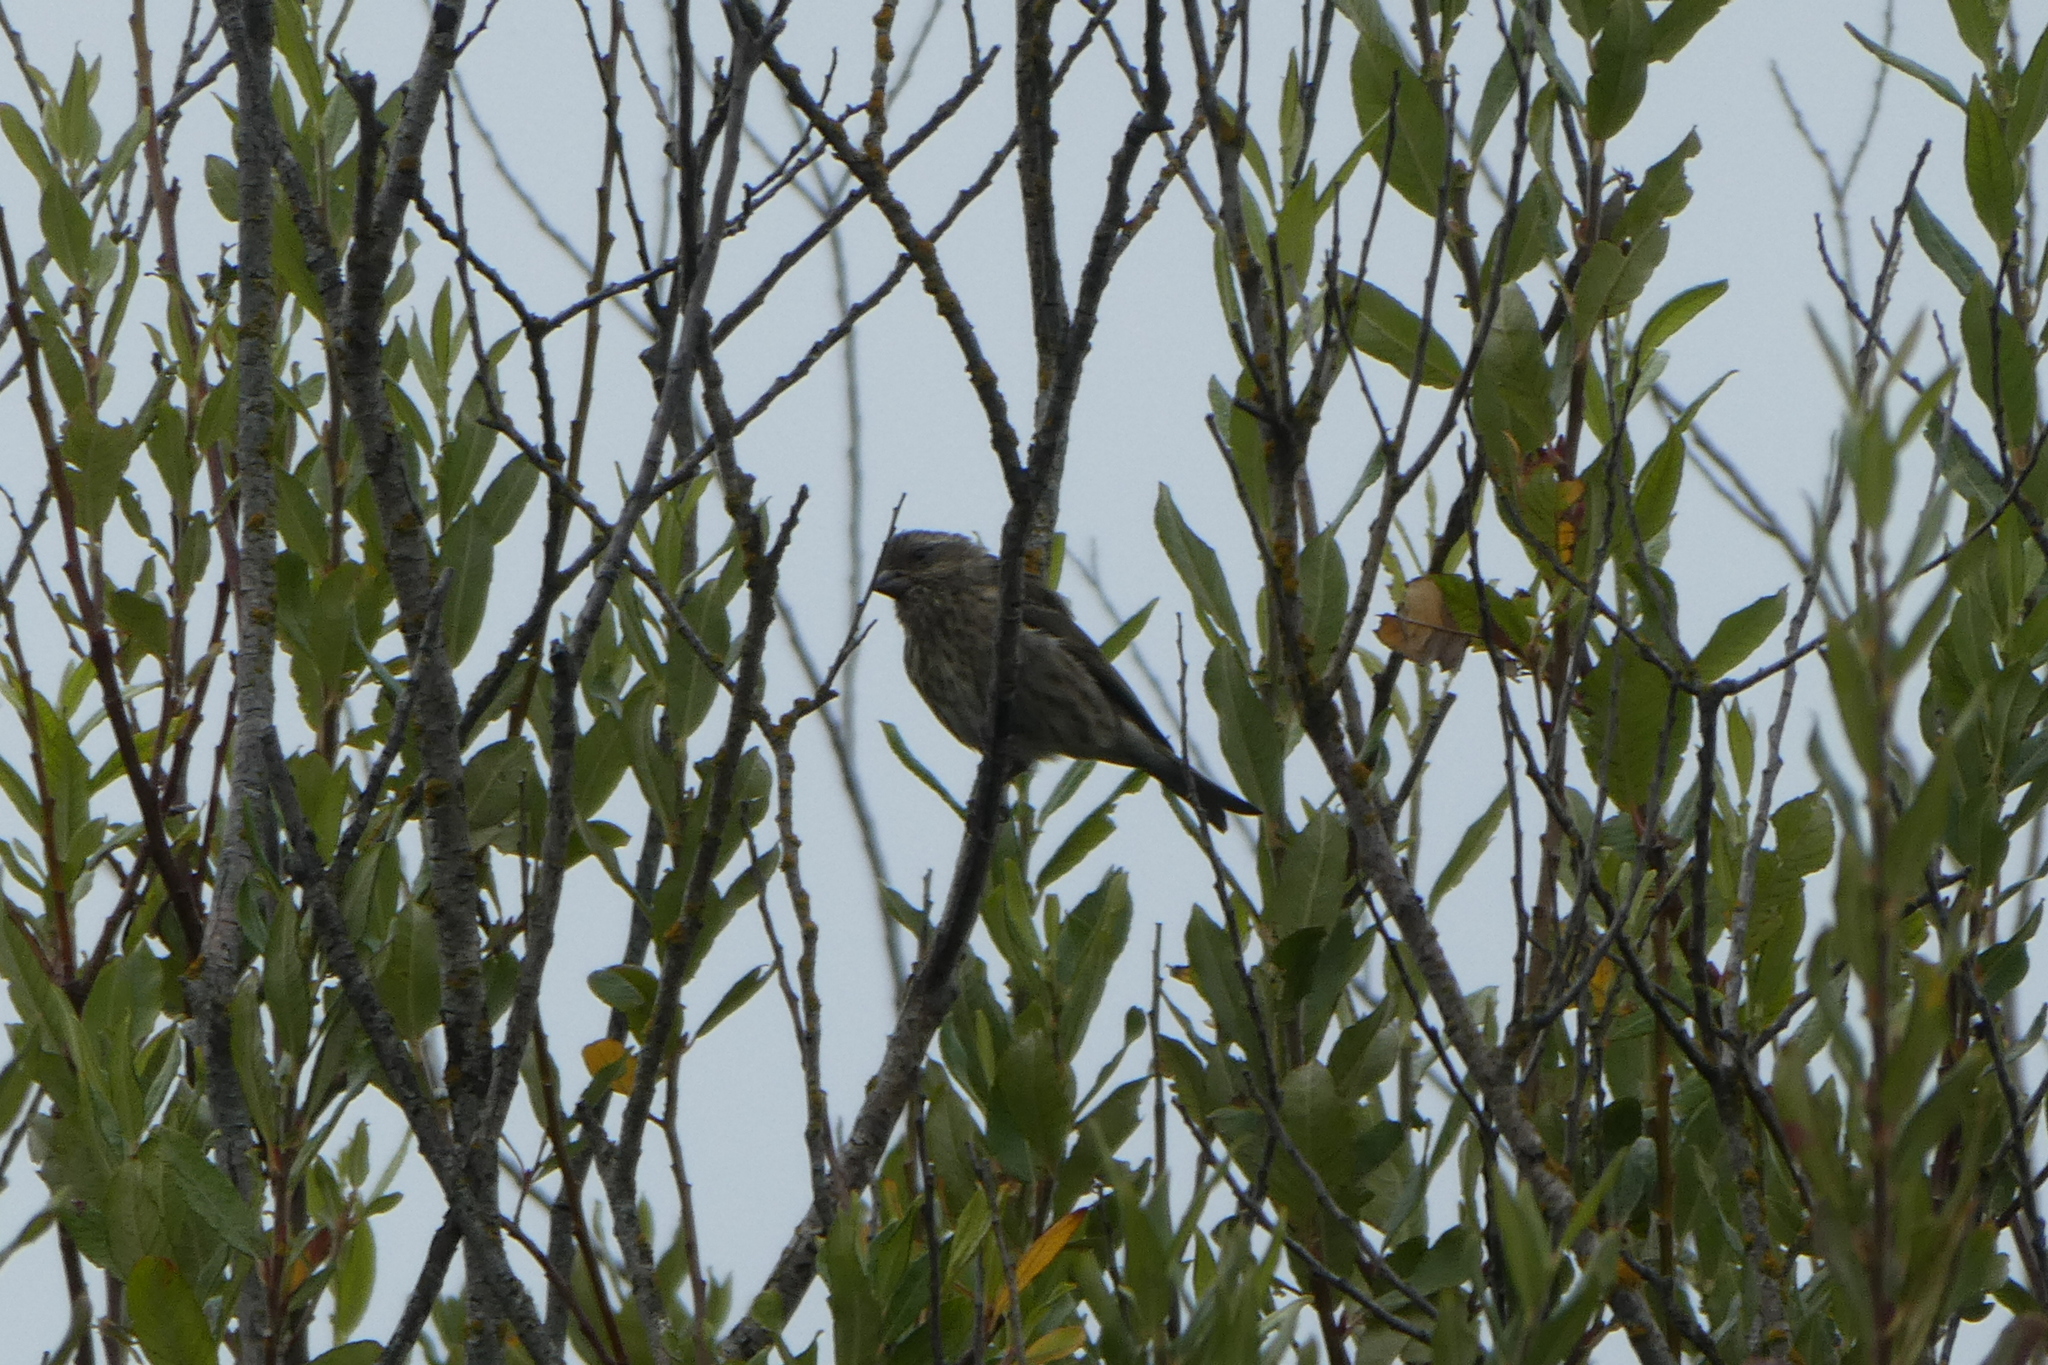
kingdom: Animalia
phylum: Chordata
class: Aves
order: Passeriformes
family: Fringillidae
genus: Haemorhous
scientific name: Haemorhous purpureus
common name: Purple finch
